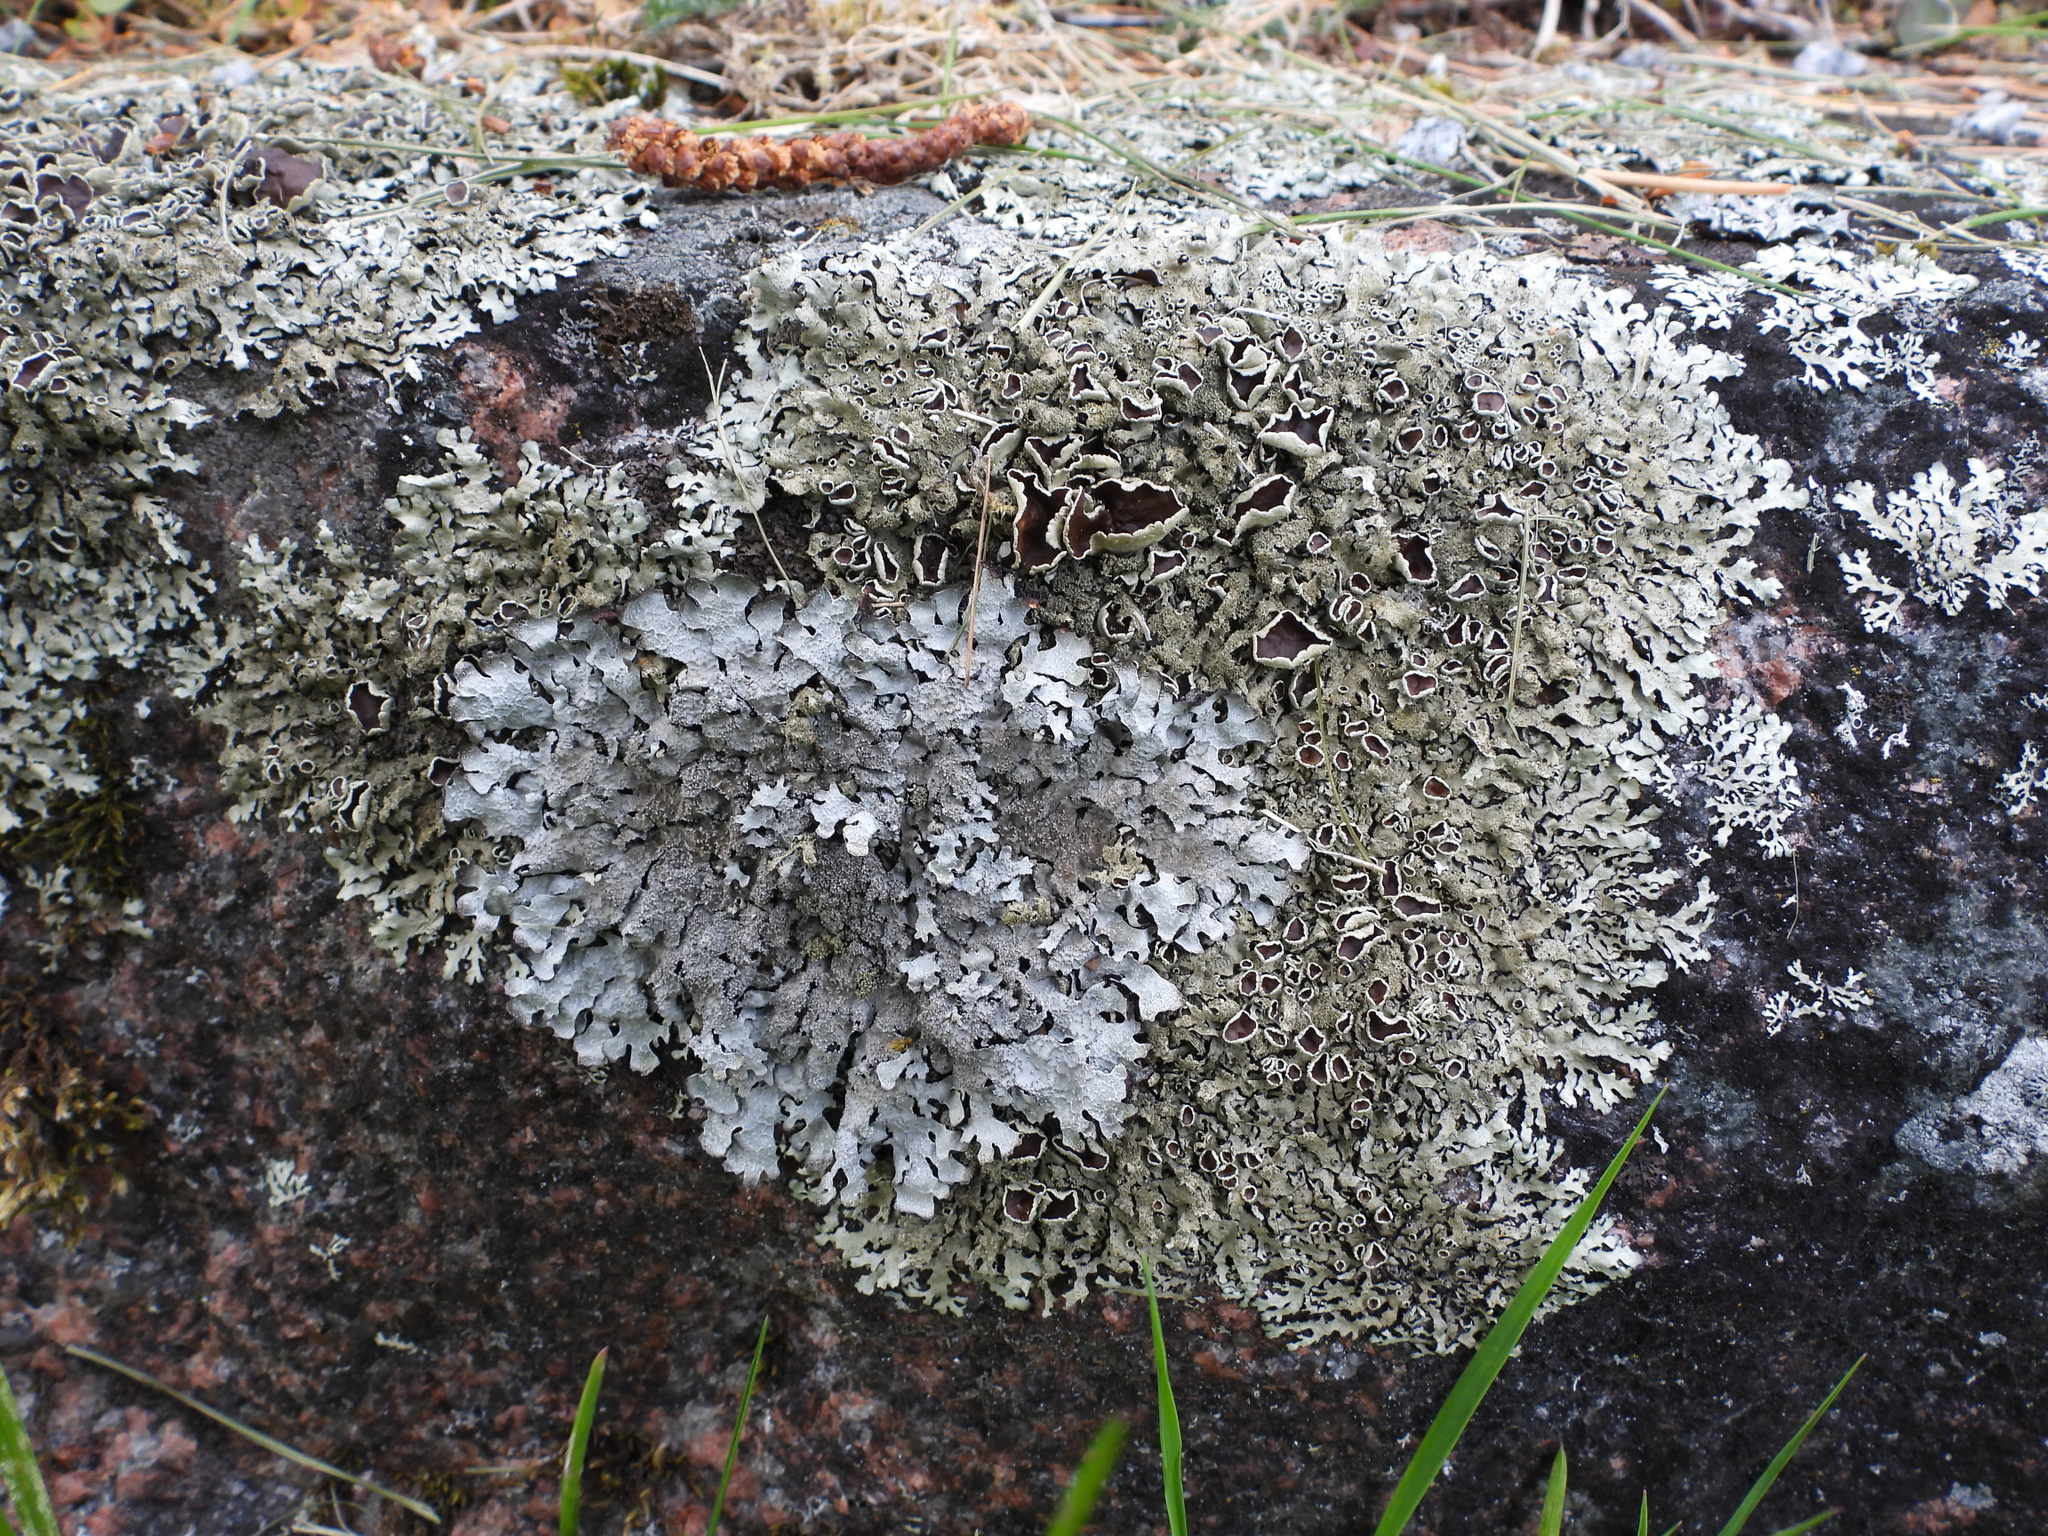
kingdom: Fungi
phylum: Ascomycota
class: Lecanoromycetes
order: Lecanorales
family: Parmeliaceae
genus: Xanthoparmelia
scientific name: Xanthoparmelia conspersa
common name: Peppered rock shield
